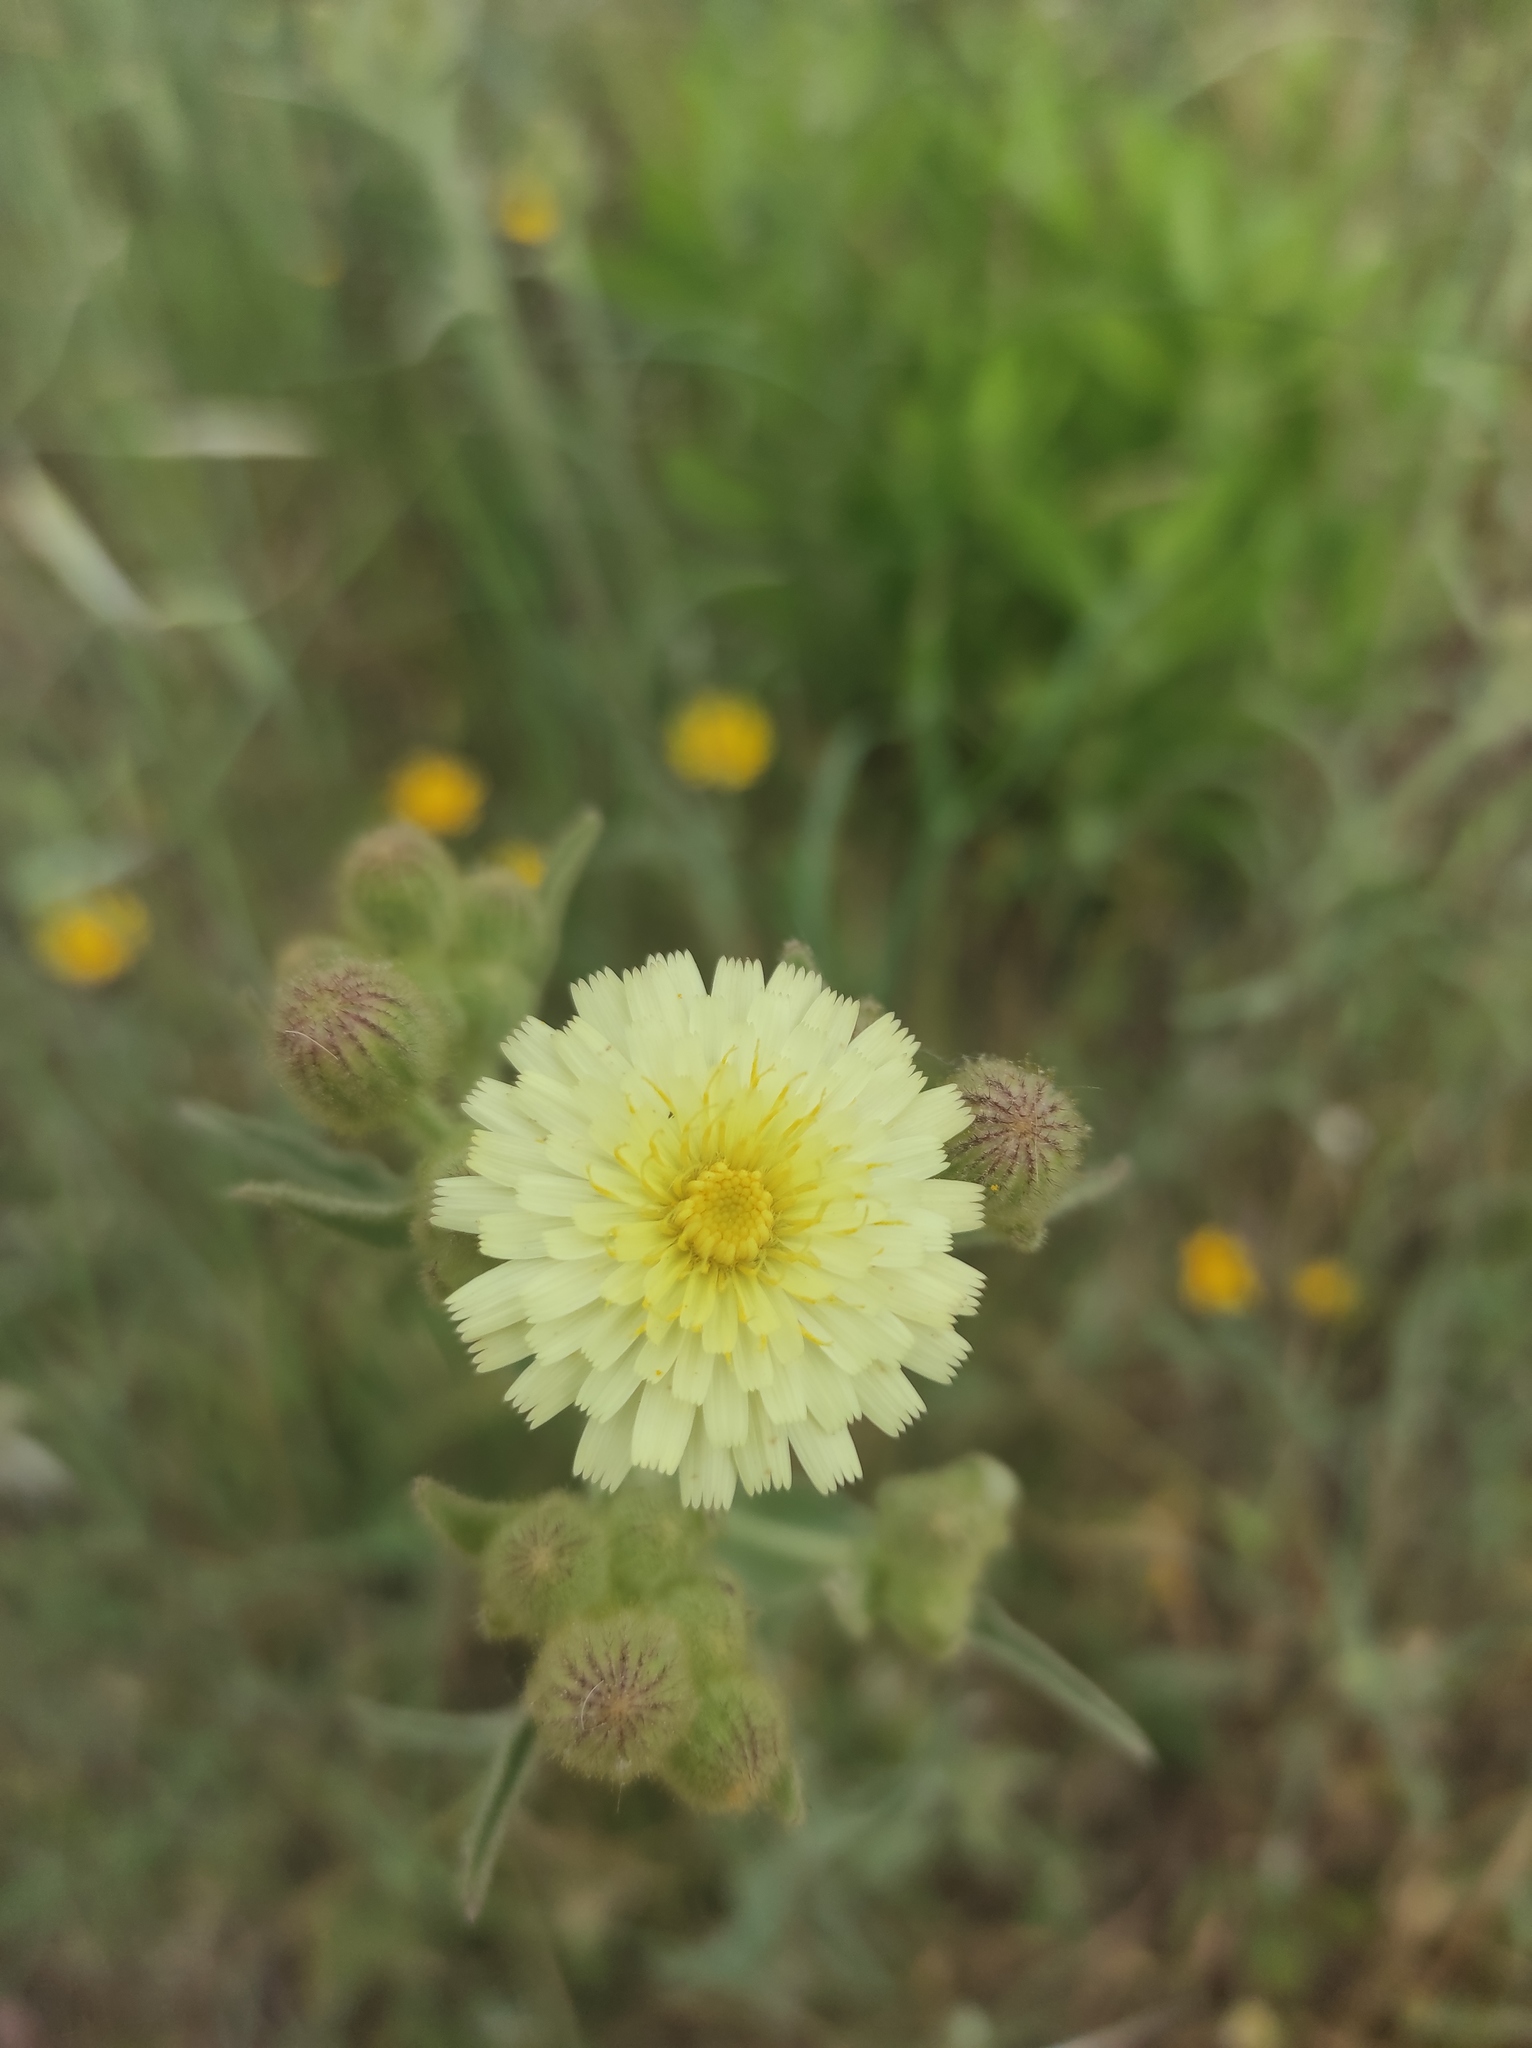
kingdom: Plantae
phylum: Tracheophyta
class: Magnoliopsida
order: Asterales
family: Asteraceae
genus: Andryala
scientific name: Andryala integrifolia
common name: Common andryala
